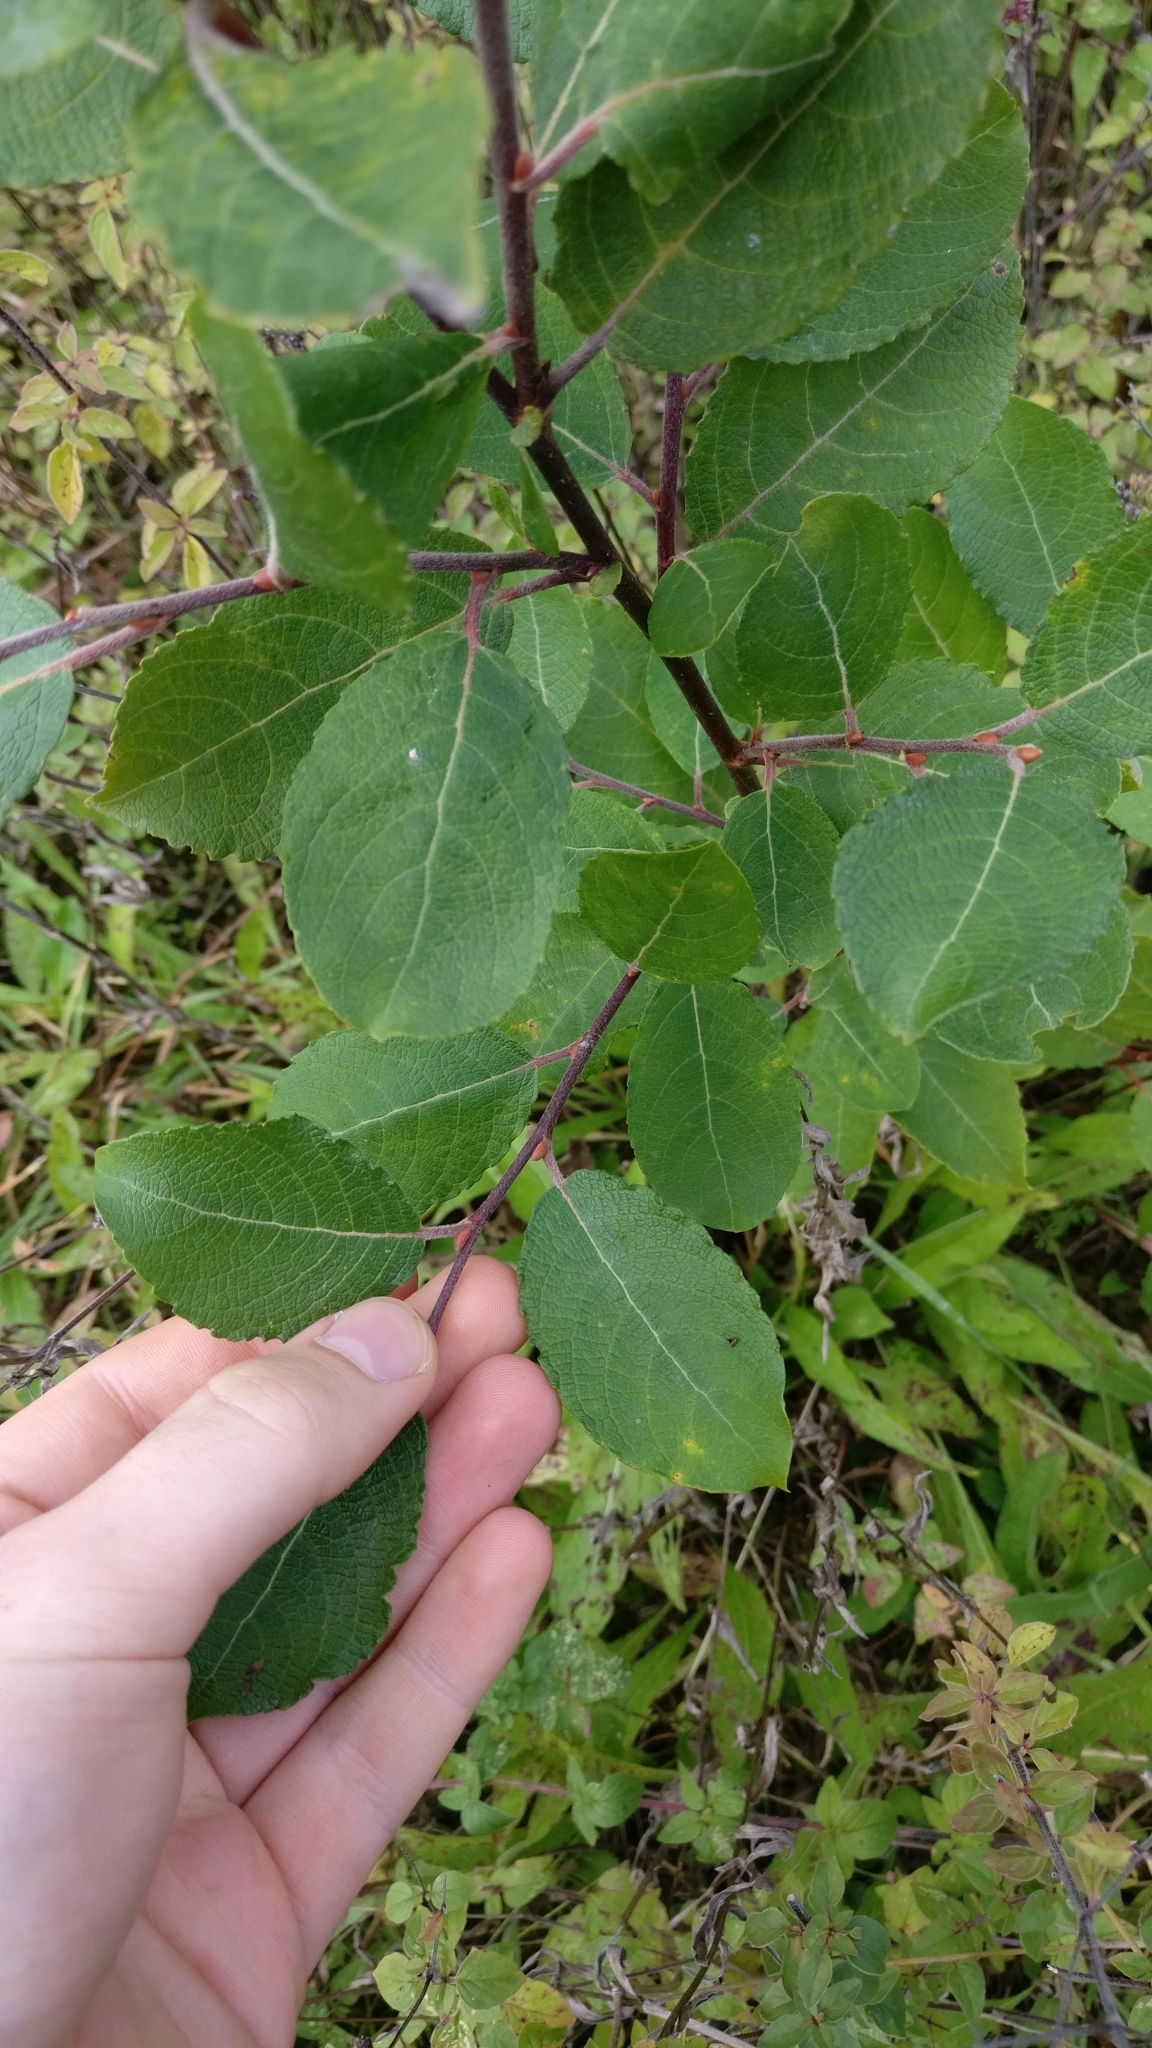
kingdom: Plantae
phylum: Tracheophyta
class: Magnoliopsida
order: Malpighiales
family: Salicaceae
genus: Salix
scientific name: Salix caprea
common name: Goat willow
